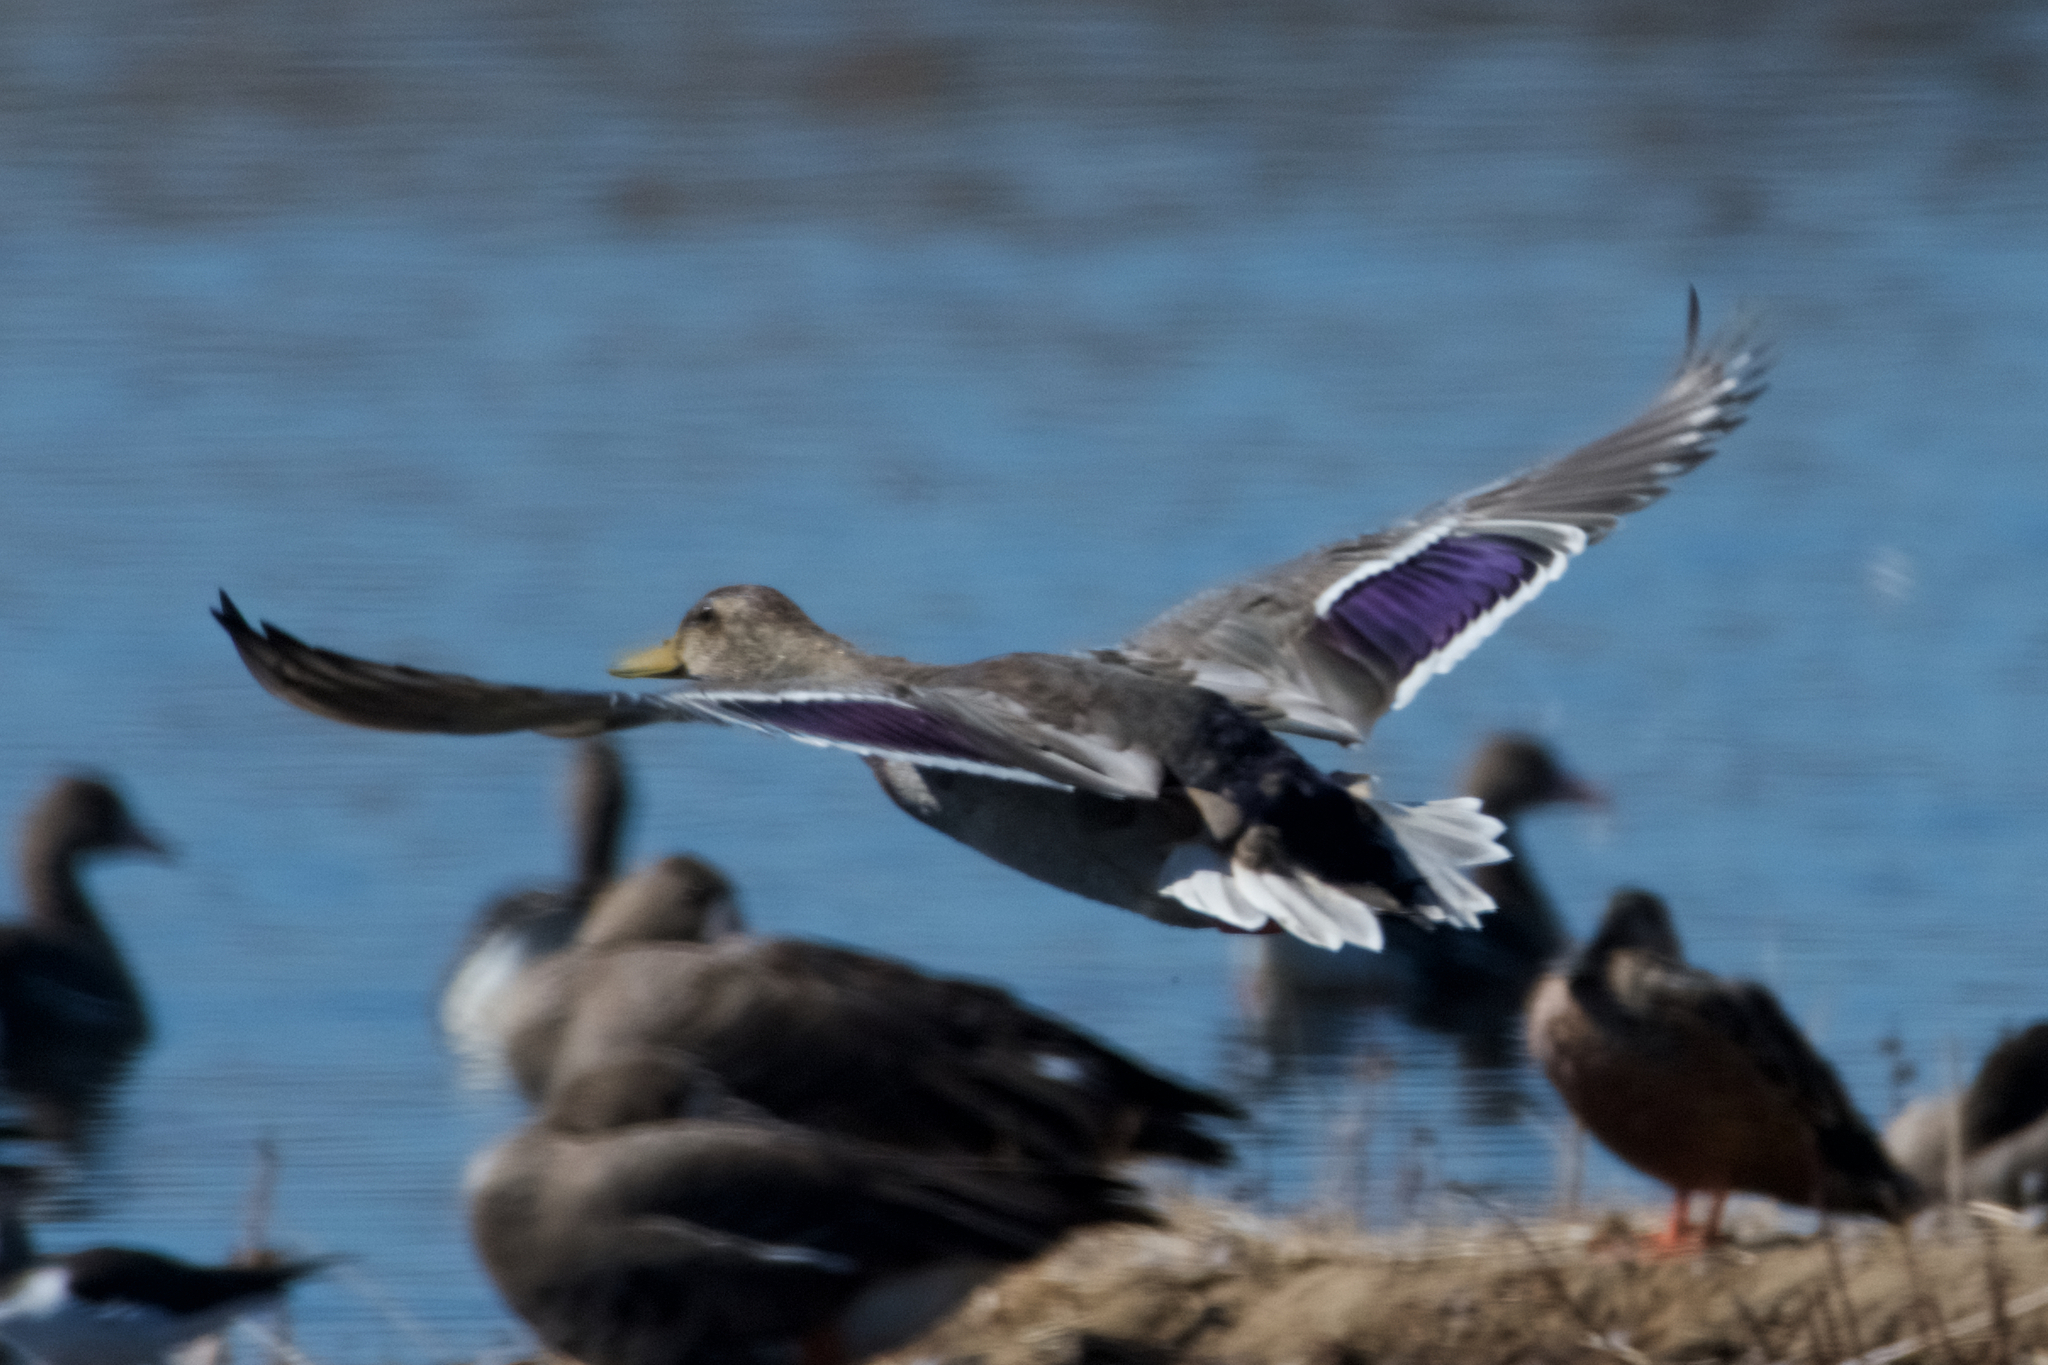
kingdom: Animalia
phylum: Chordata
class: Aves
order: Anseriformes
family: Anatidae
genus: Anas
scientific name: Anas platyrhynchos
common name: Mallard
